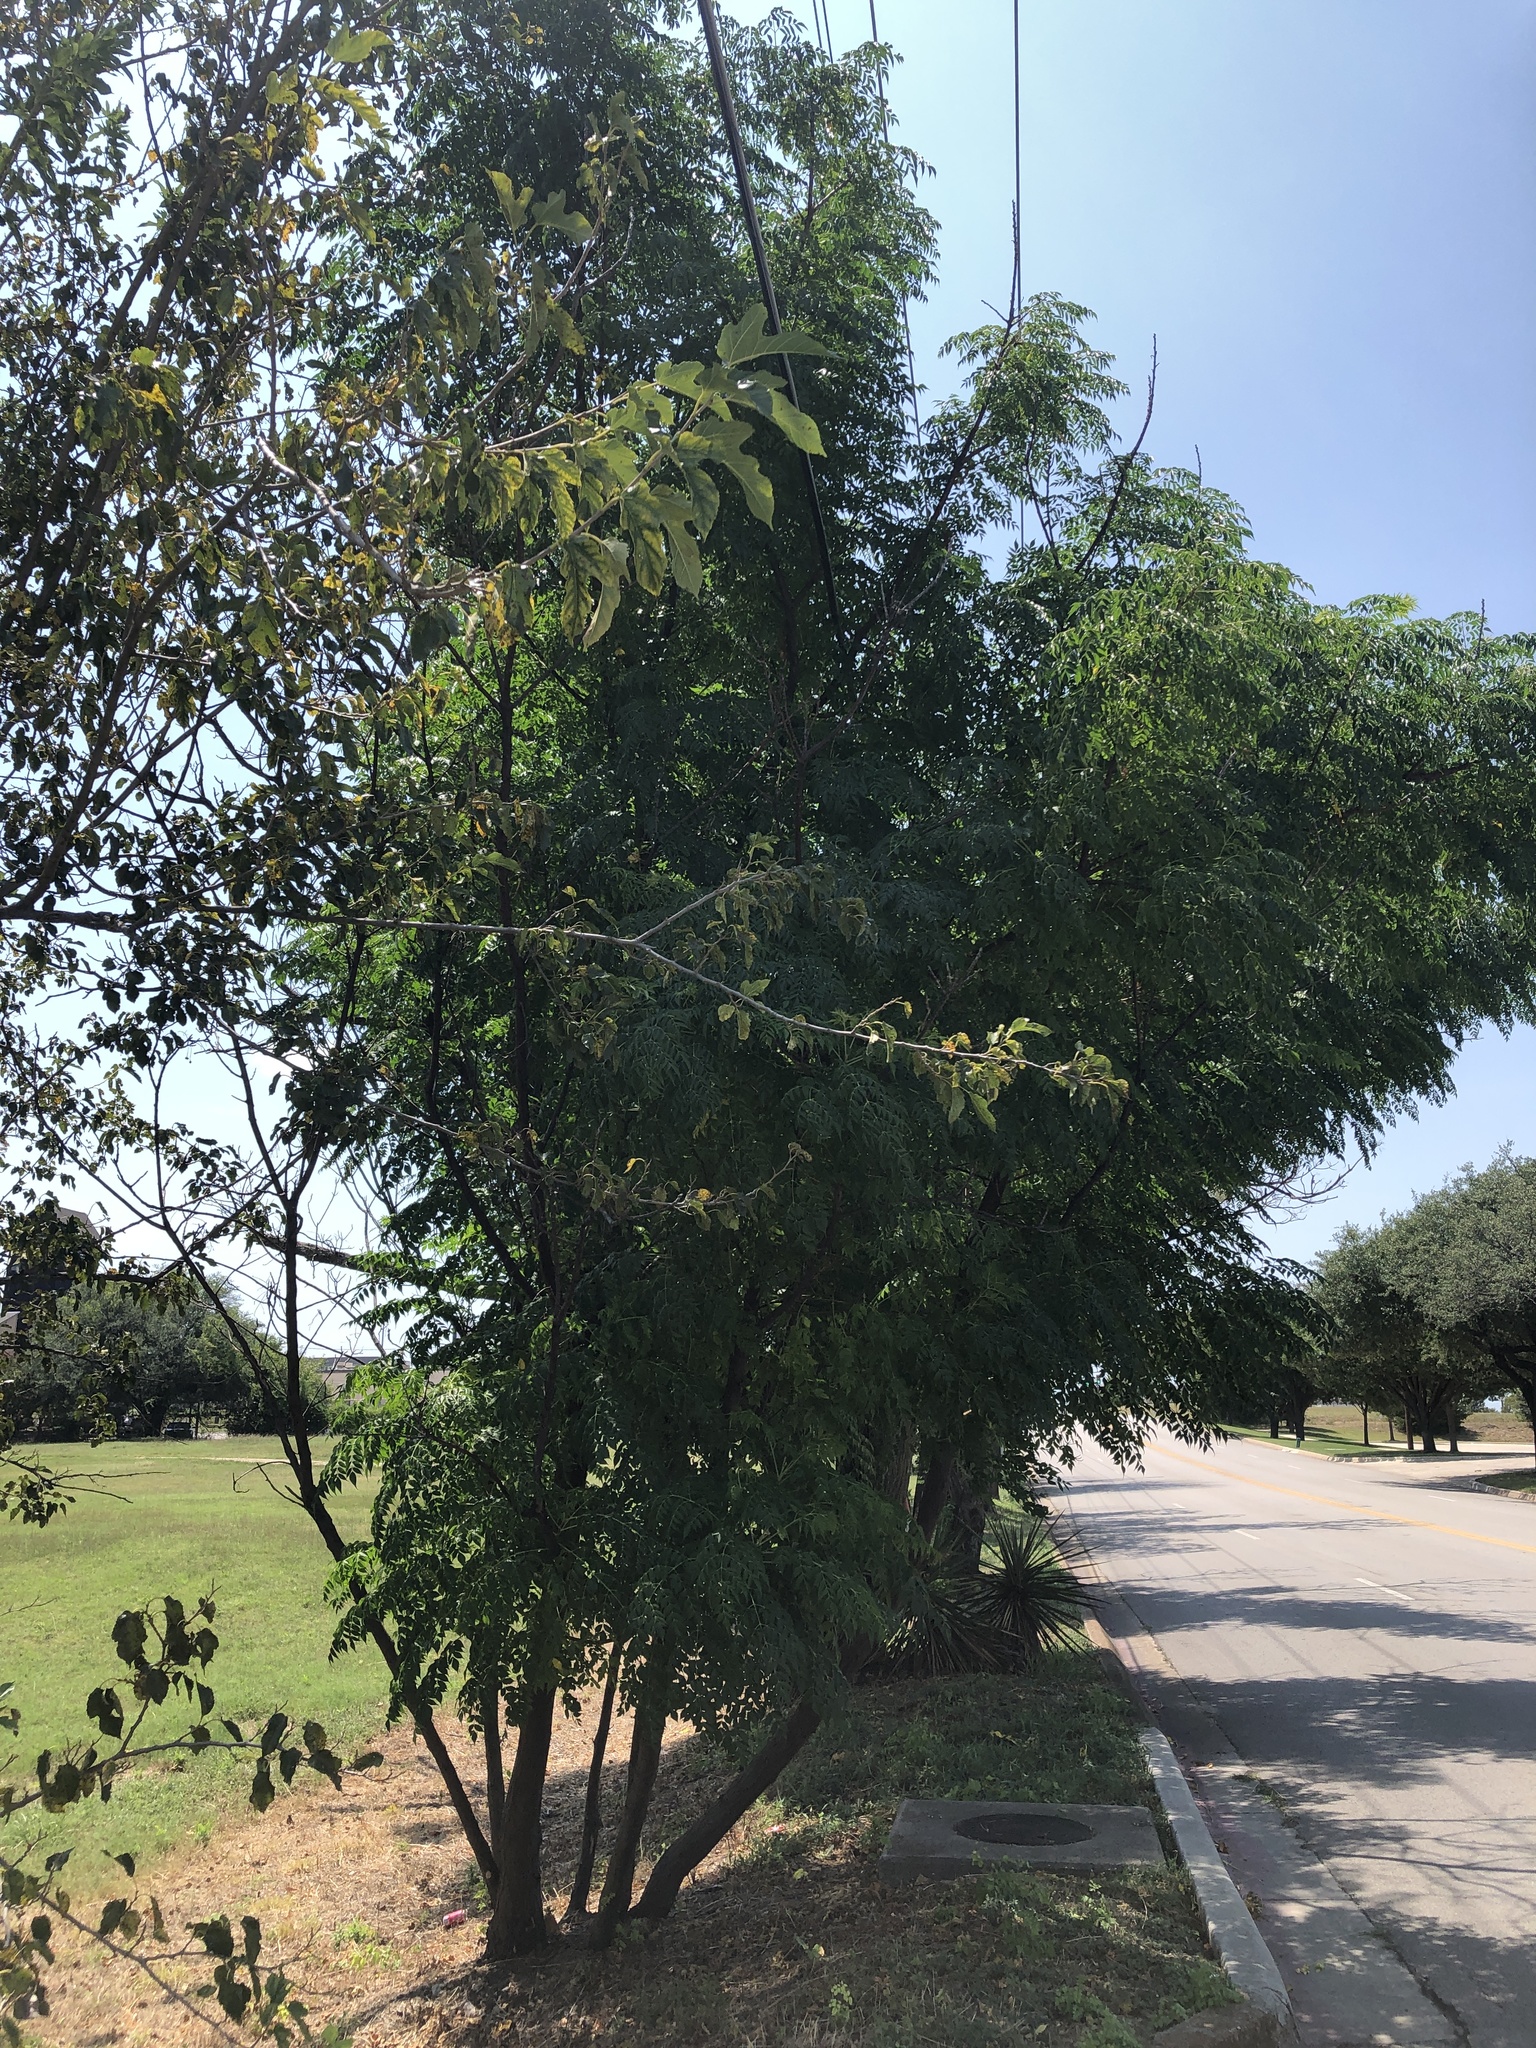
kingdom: Plantae
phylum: Tracheophyta
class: Magnoliopsida
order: Sapindales
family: Meliaceae
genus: Melia
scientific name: Melia azedarach
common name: Chinaberrytree
